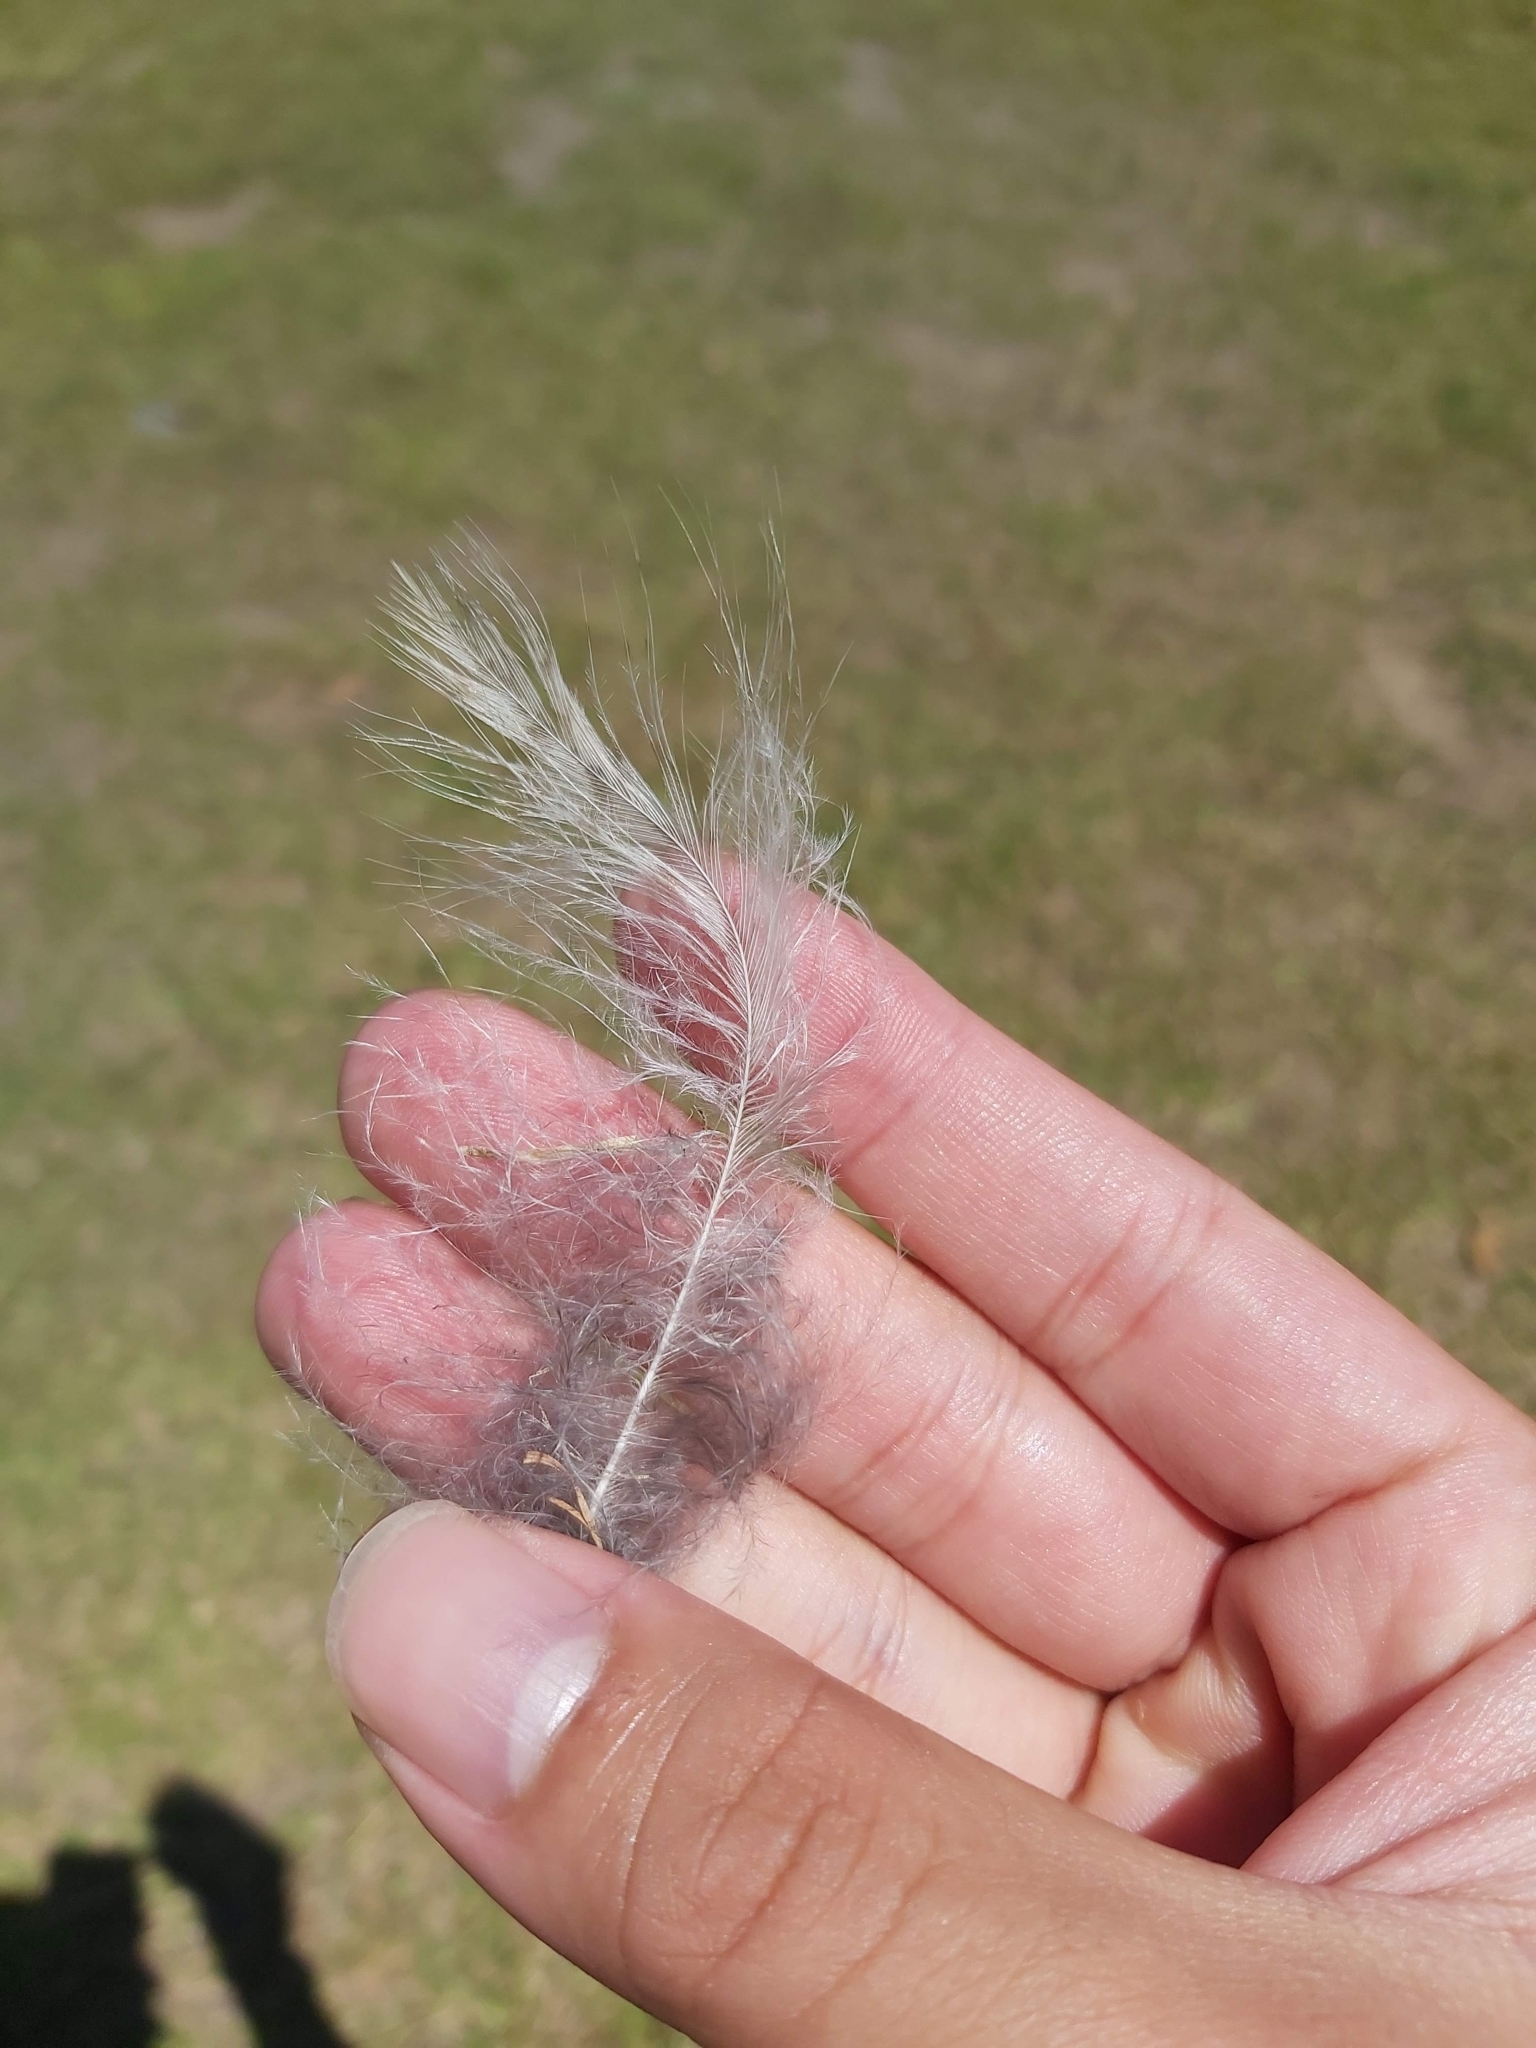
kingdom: Animalia
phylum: Chordata
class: Aves
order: Coraciiformes
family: Alcedinidae
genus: Dacelo
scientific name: Dacelo novaeguineae
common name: Laughing kookaburra
